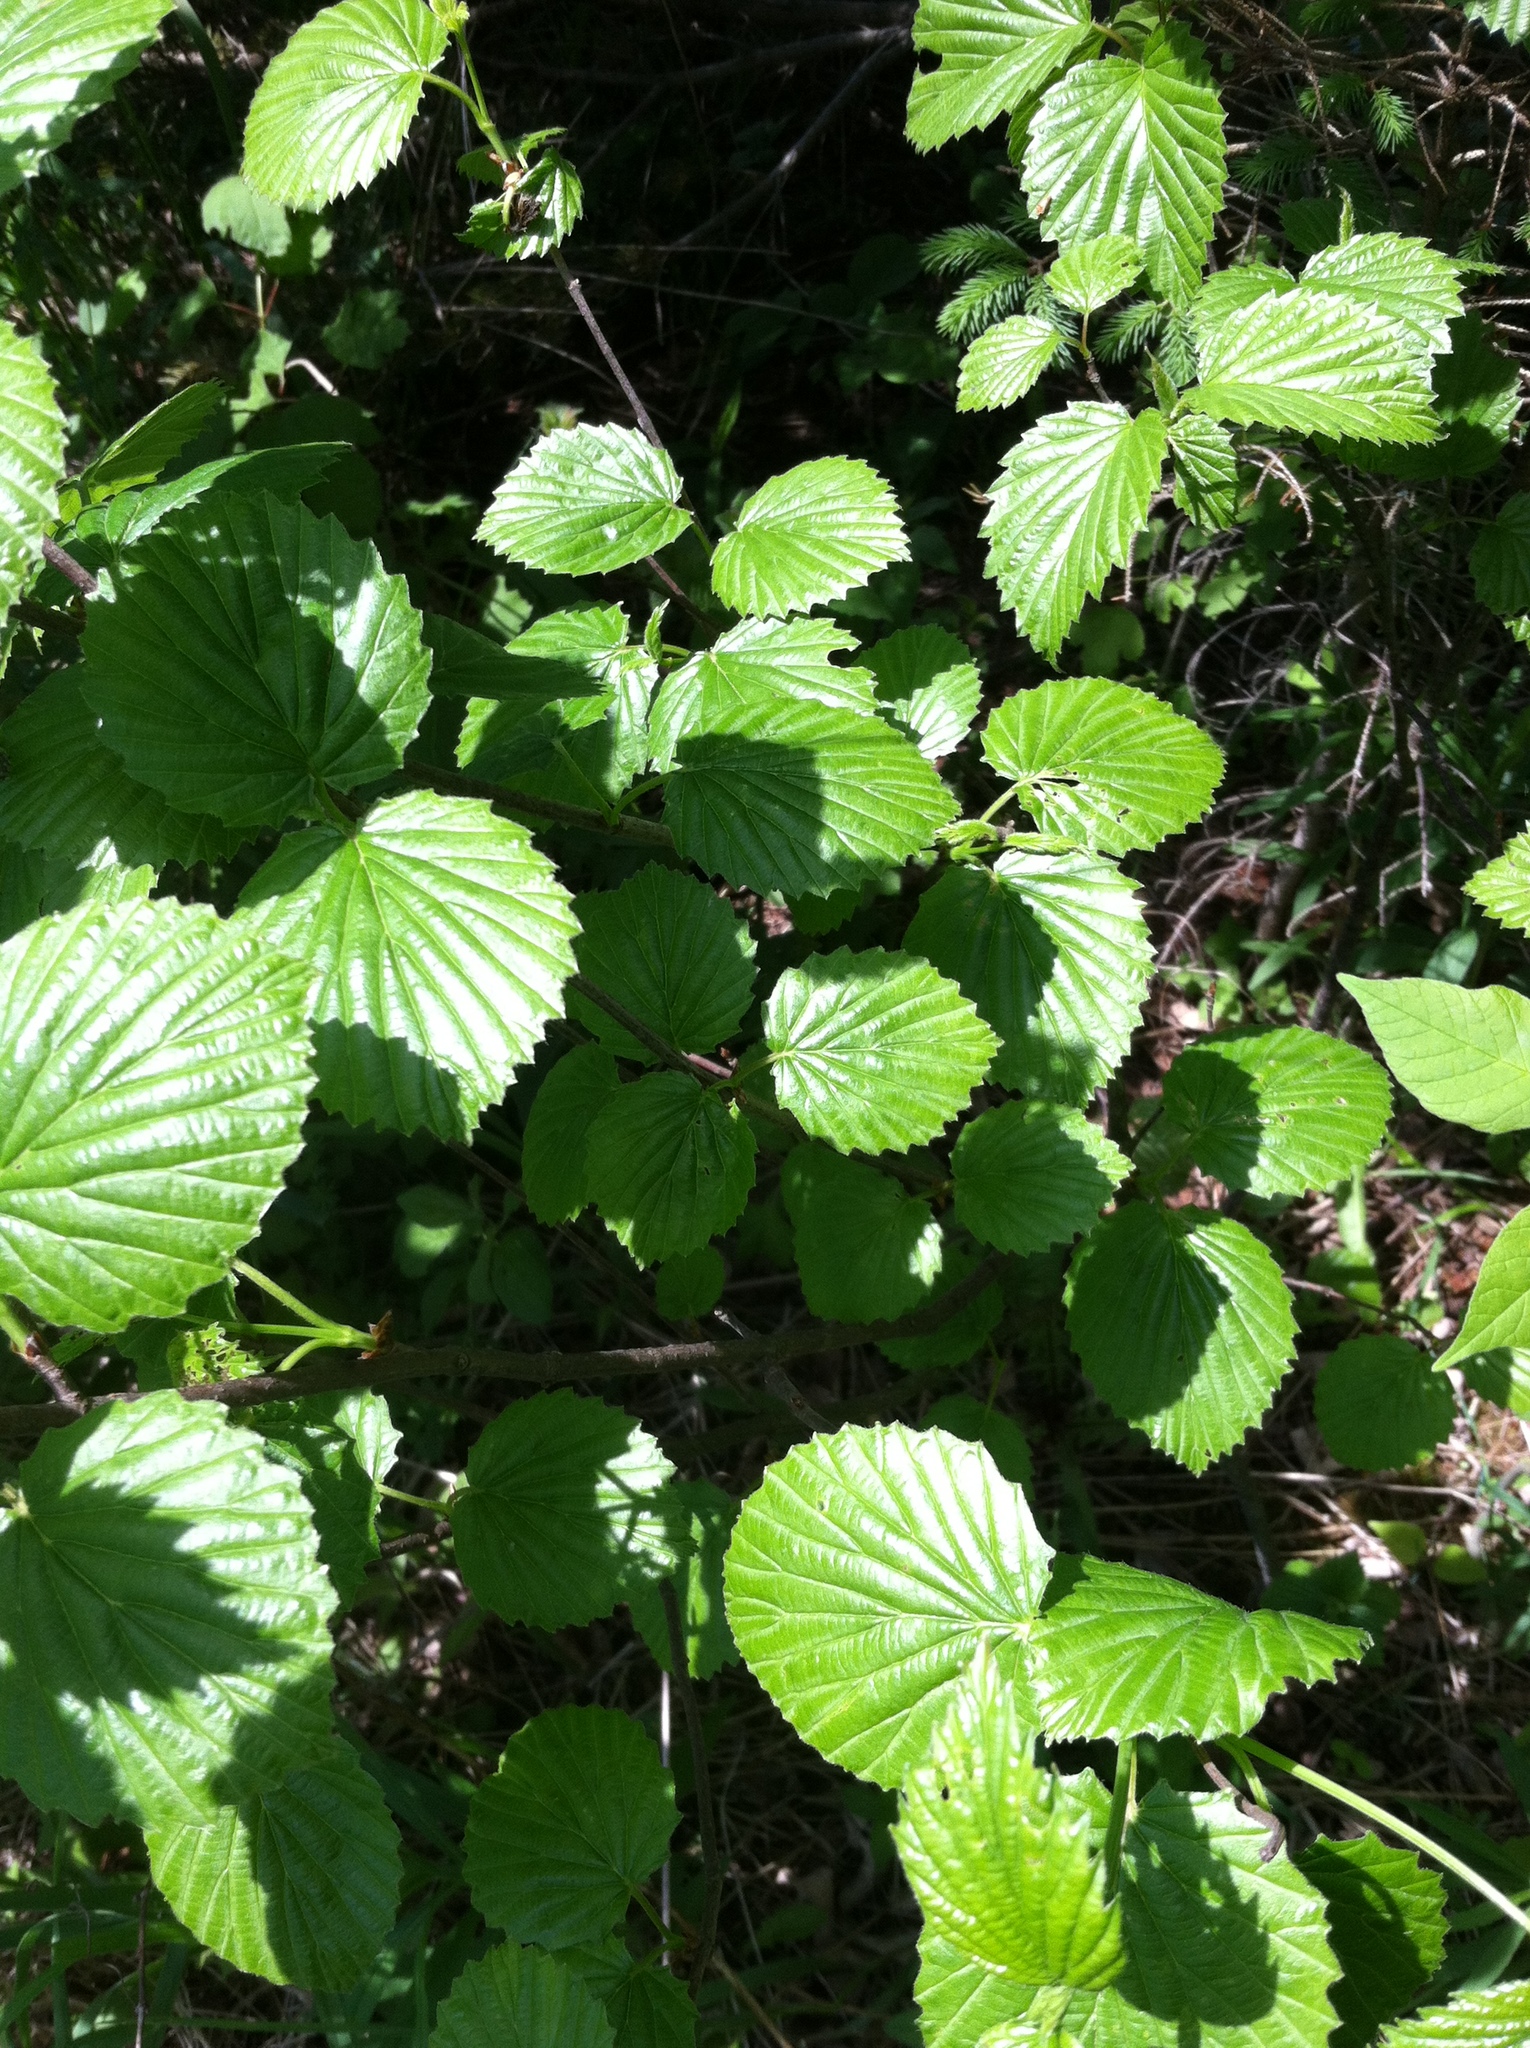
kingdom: Plantae
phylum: Tracheophyta
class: Magnoliopsida
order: Dipsacales
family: Viburnaceae
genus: Viburnum
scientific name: Viburnum recognitum
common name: Northern arrow-wood
